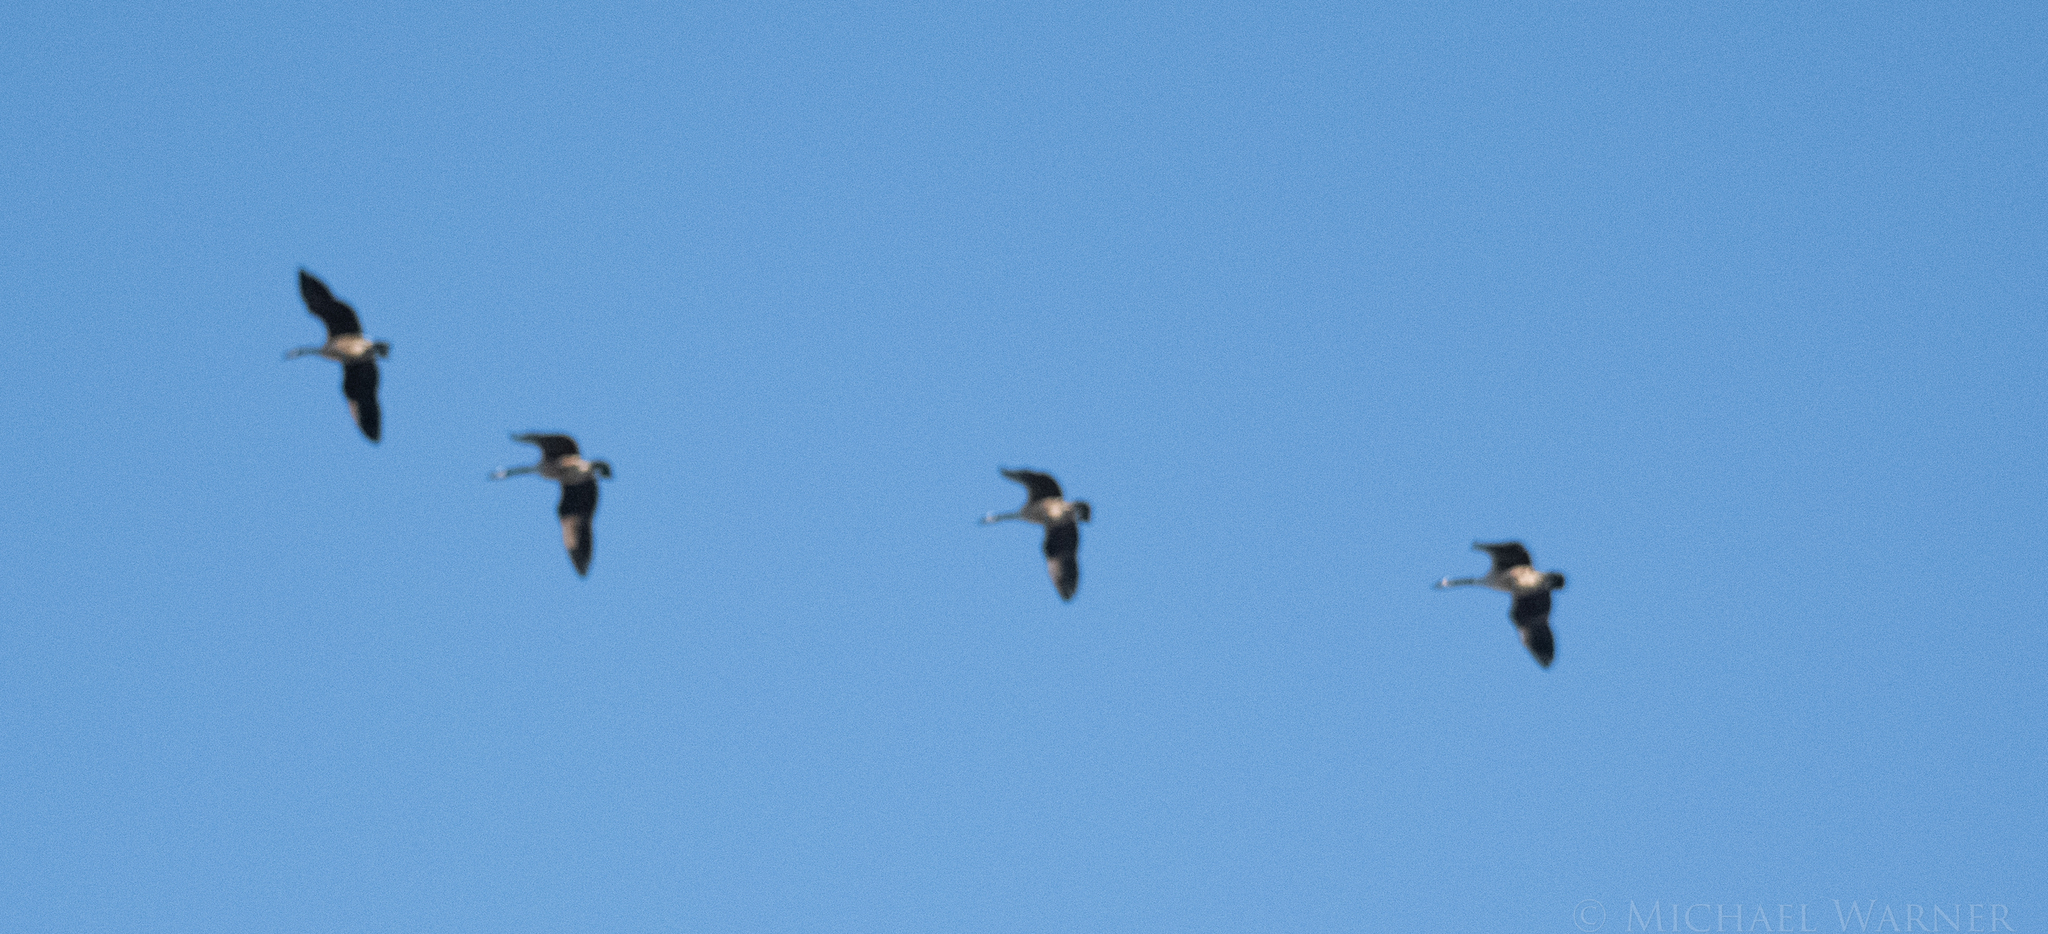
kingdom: Animalia
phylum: Chordata
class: Aves
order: Anseriformes
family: Anatidae
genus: Branta
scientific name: Branta canadensis
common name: Canada goose
